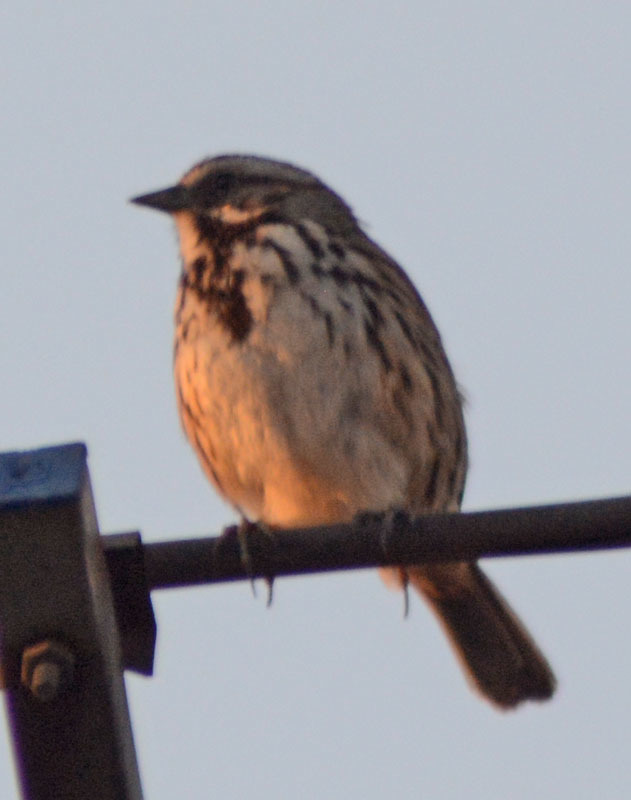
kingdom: Animalia
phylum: Chordata
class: Aves
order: Passeriformes
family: Passerellidae
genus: Melospiza
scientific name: Melospiza melodia
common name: Song sparrow
